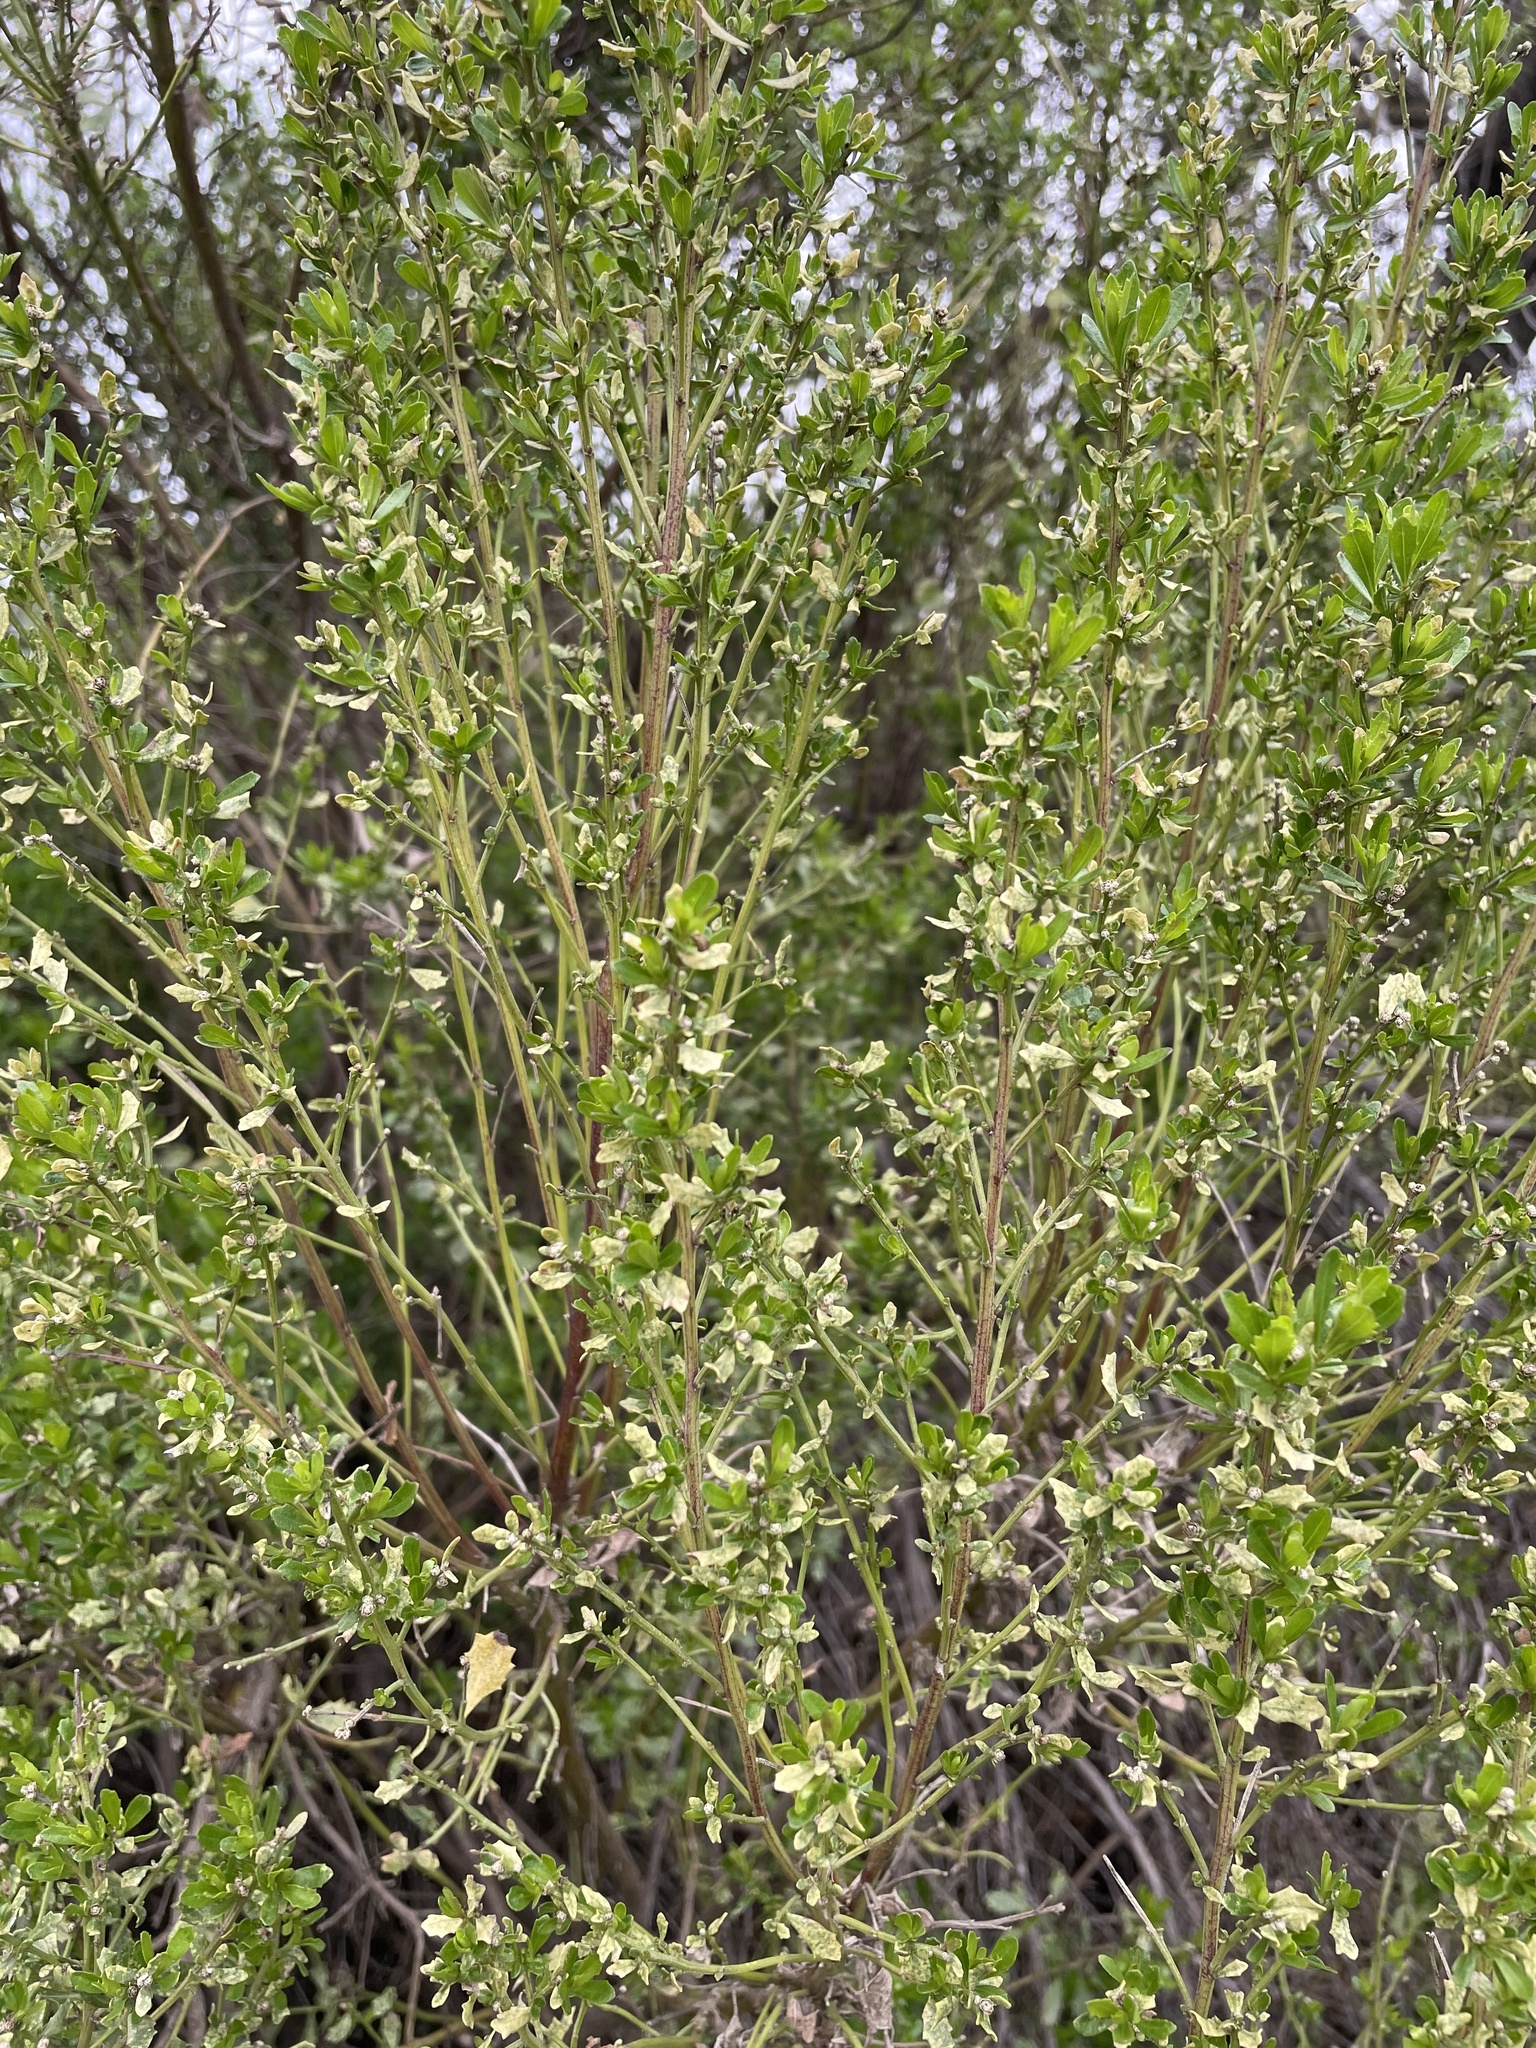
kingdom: Plantae
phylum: Tracheophyta
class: Magnoliopsida
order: Asterales
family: Asteraceae
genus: Baccharis
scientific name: Baccharis pilularis
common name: Coyotebrush
